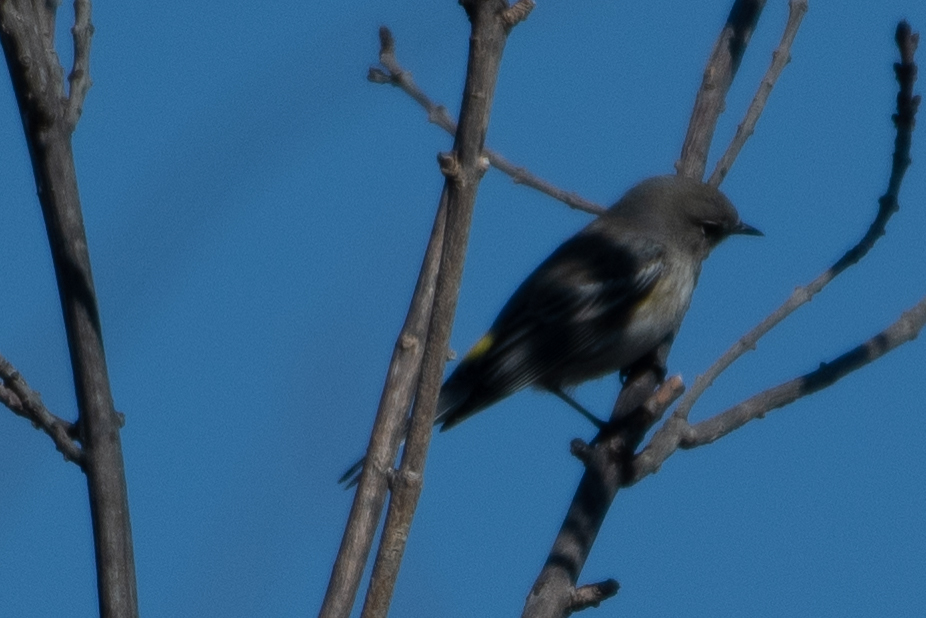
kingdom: Animalia
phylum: Chordata
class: Aves
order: Passeriformes
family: Parulidae
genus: Setophaga
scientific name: Setophaga coronata
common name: Myrtle warbler
